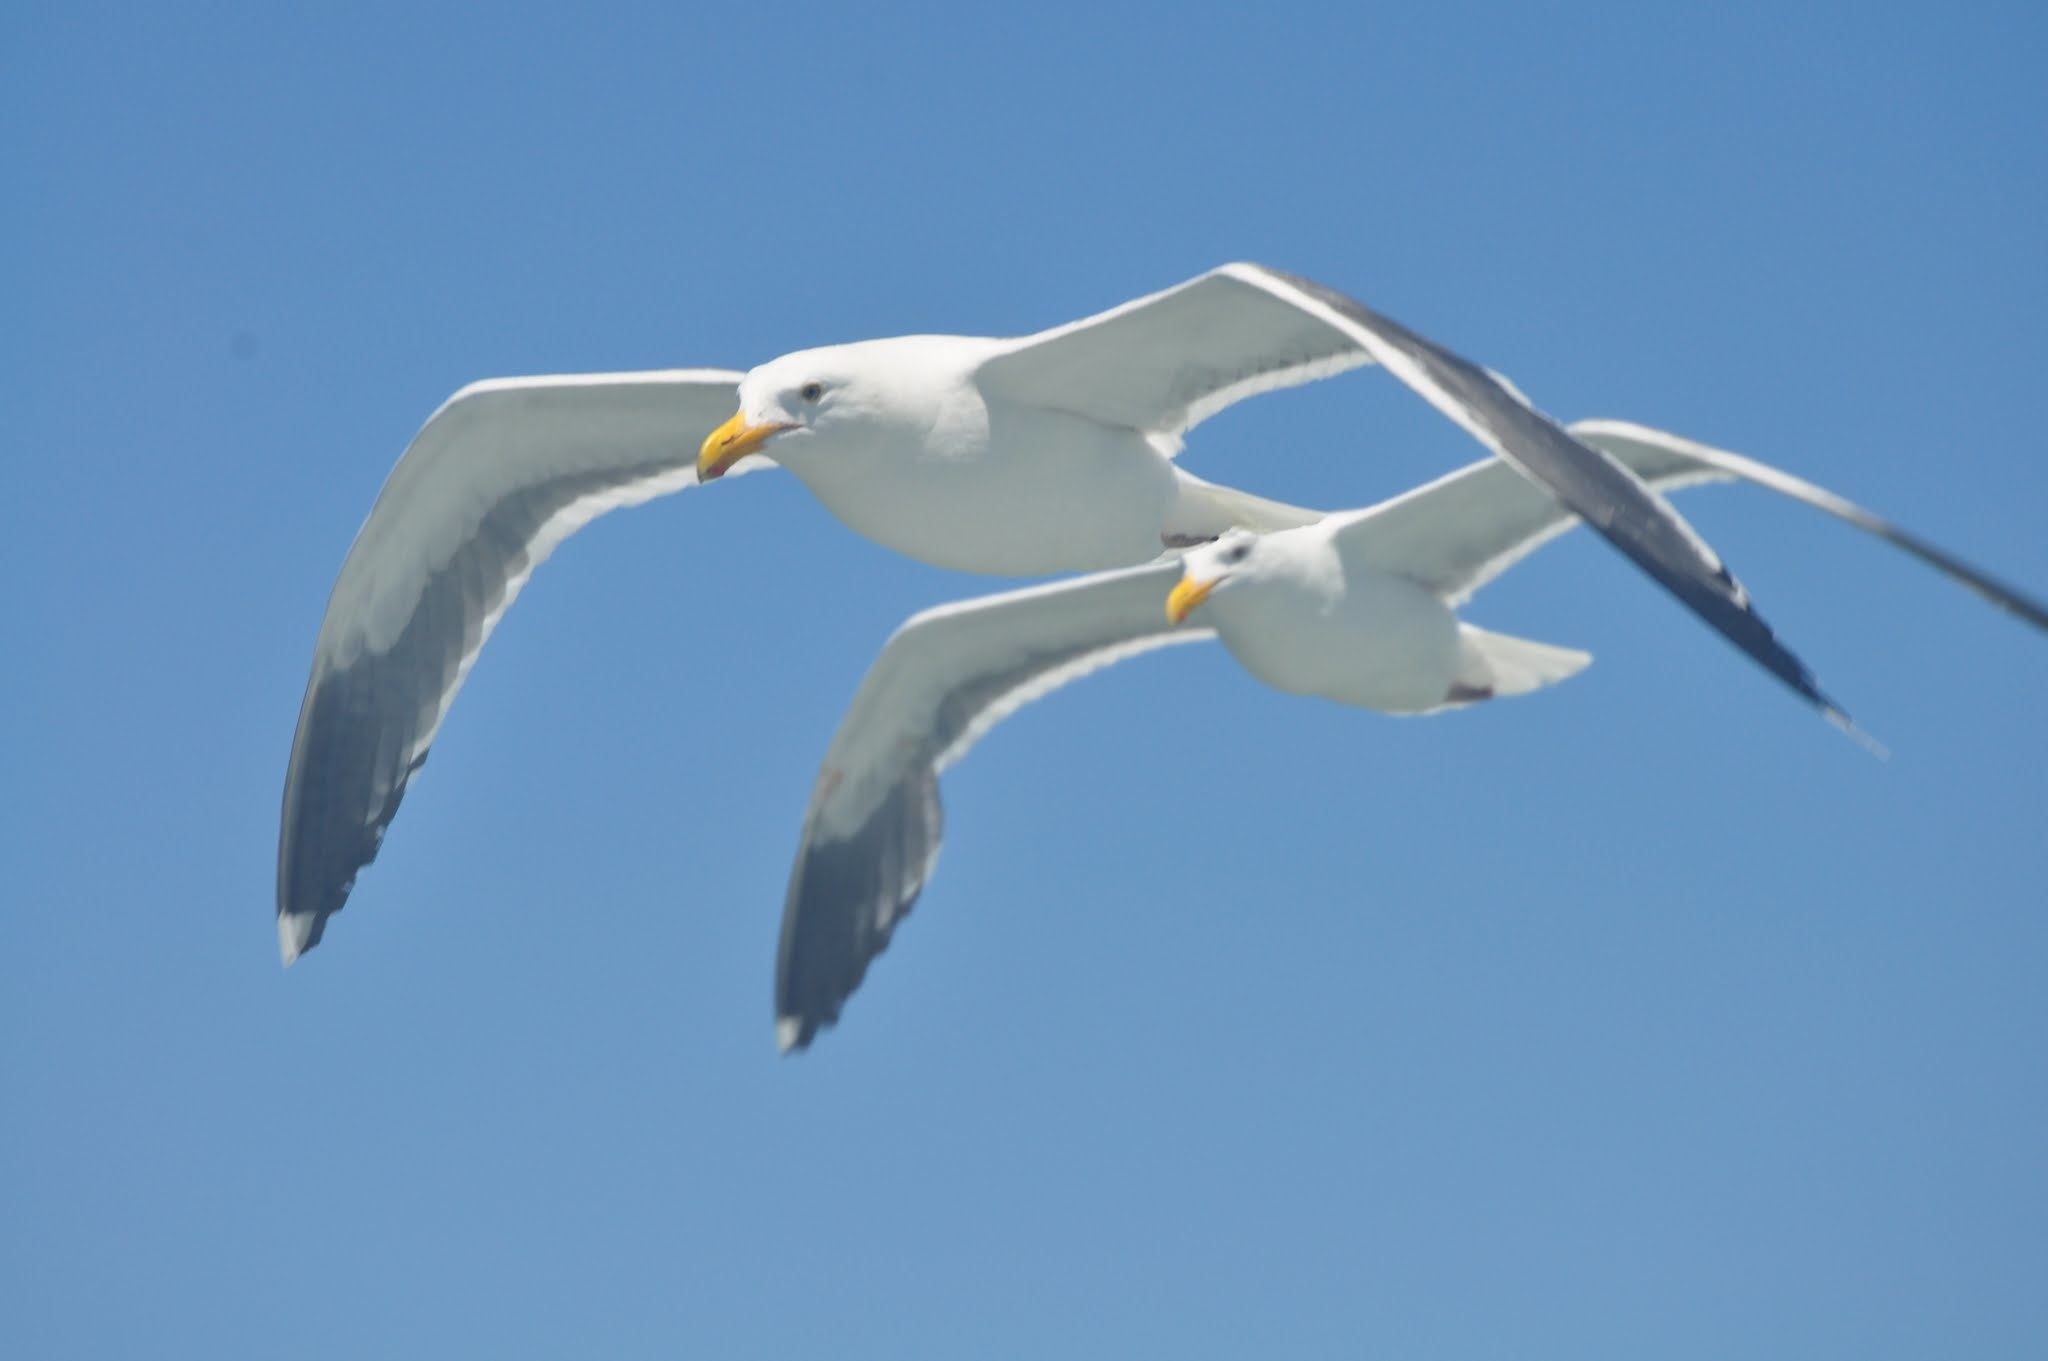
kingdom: Animalia
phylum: Chordata
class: Aves
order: Charadriiformes
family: Laridae
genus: Larus
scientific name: Larus occidentalis
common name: Western gull
